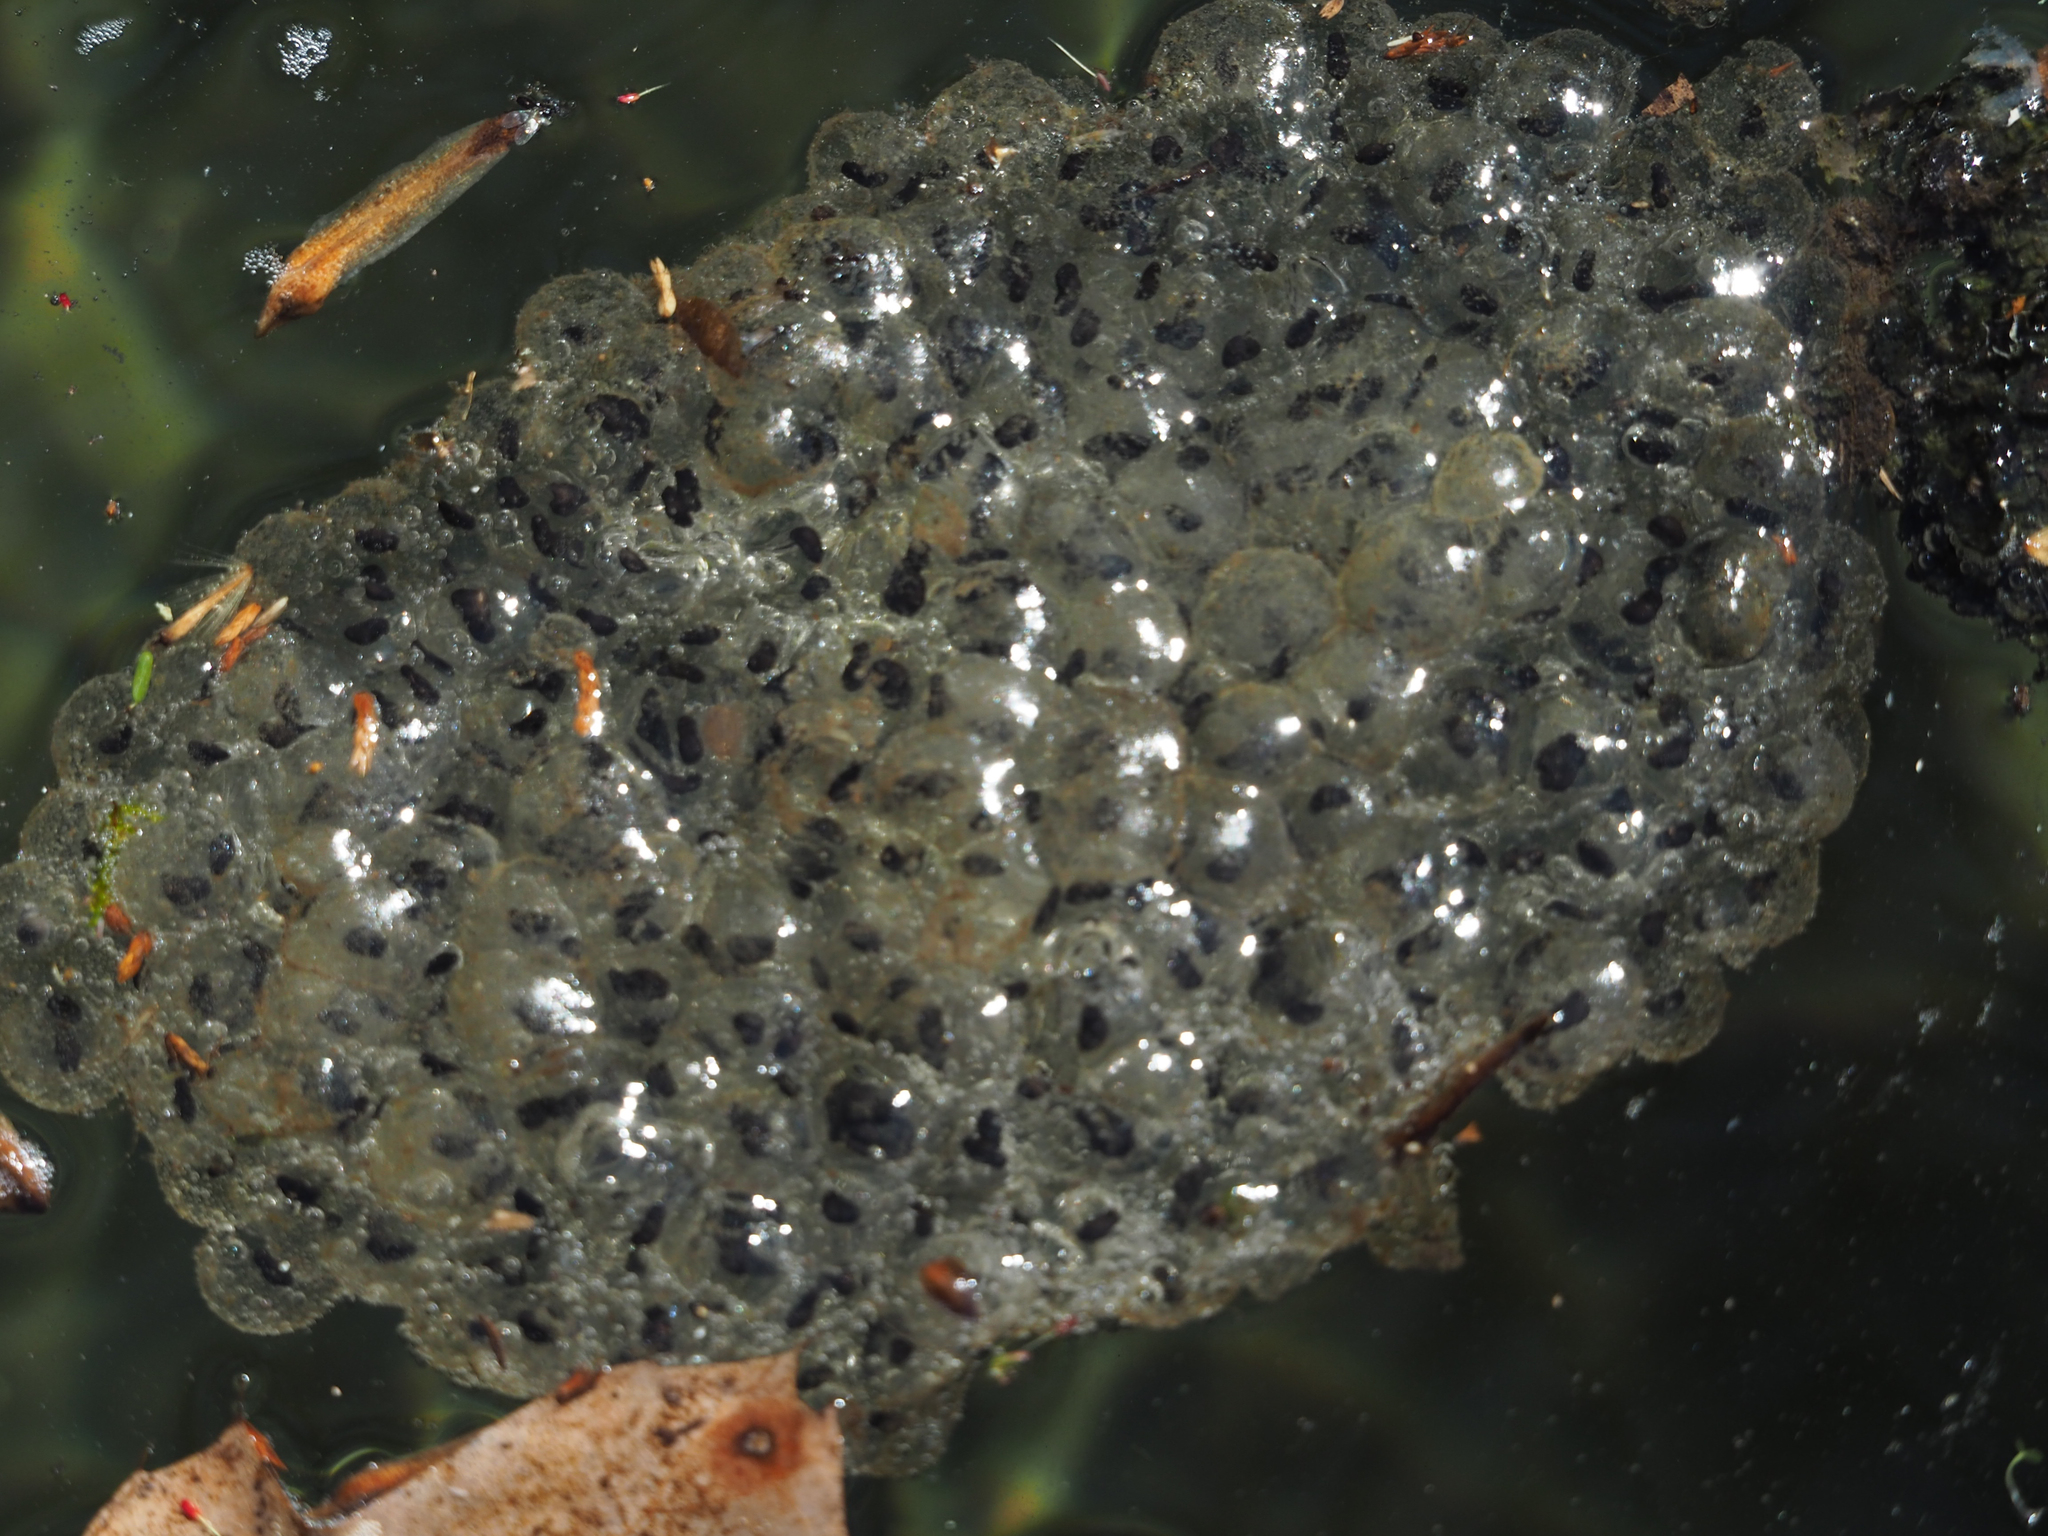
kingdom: Animalia
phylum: Chordata
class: Amphibia
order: Anura
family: Ranidae
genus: Lithobates
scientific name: Lithobates sylvaticus
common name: Wood frog
